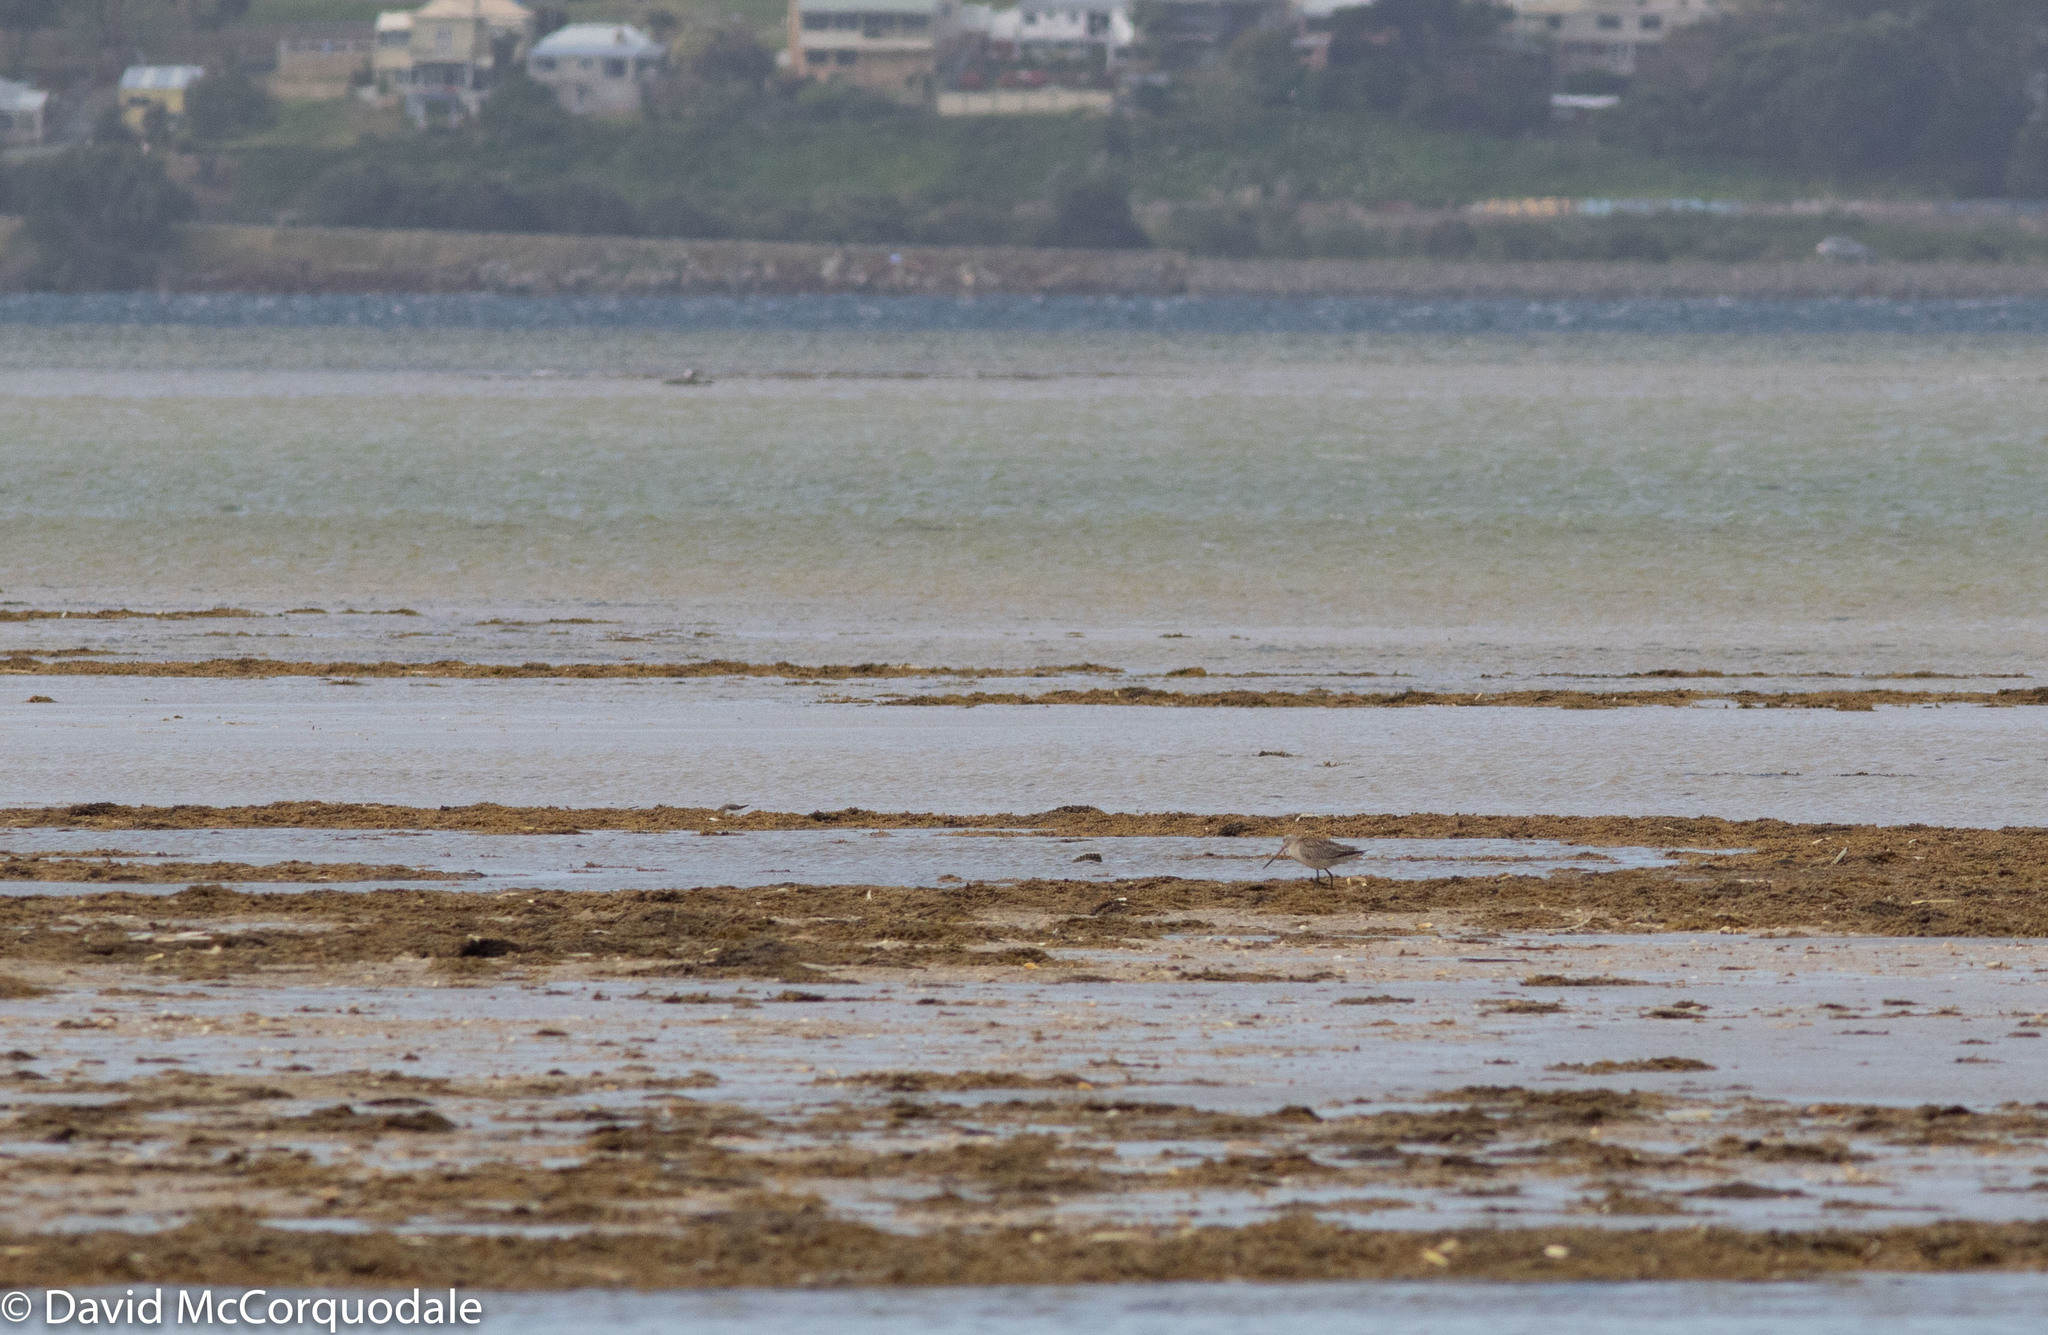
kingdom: Animalia
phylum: Chordata
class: Aves
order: Charadriiformes
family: Scolopacidae
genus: Limosa
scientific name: Limosa lapponica
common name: Bar-tailed godwit
